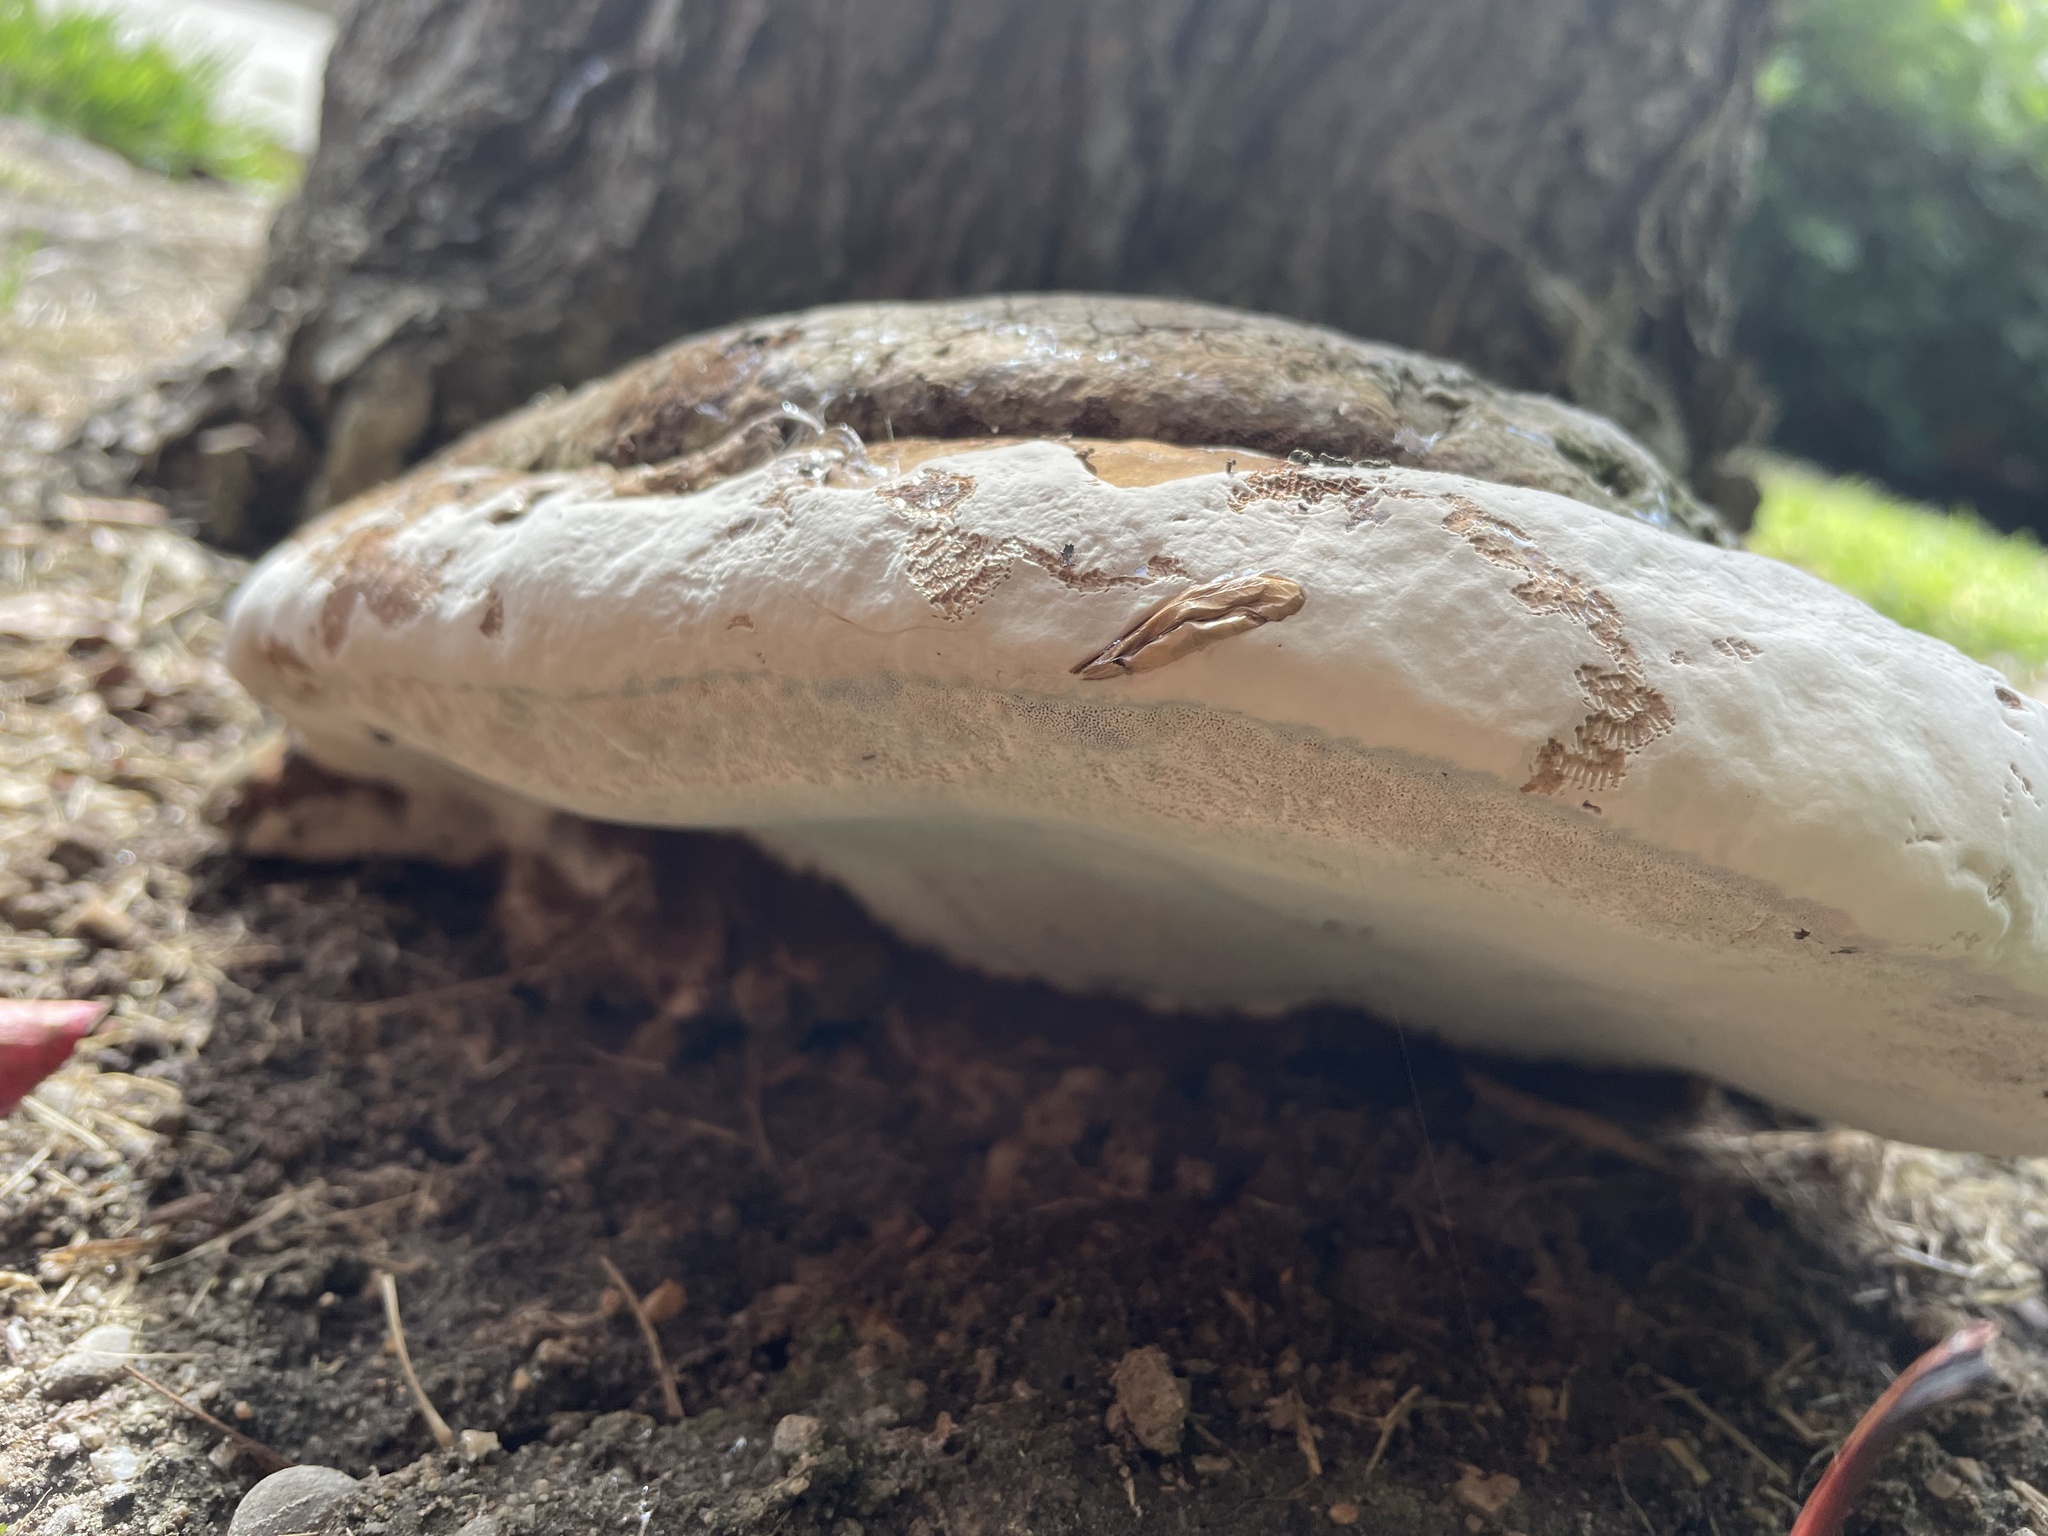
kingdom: Fungi
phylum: Basidiomycota
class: Agaricomycetes
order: Polyporales
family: Fomitopsidaceae
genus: Fomitopsis
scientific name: Fomitopsis mounceae
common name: Northern red belt
